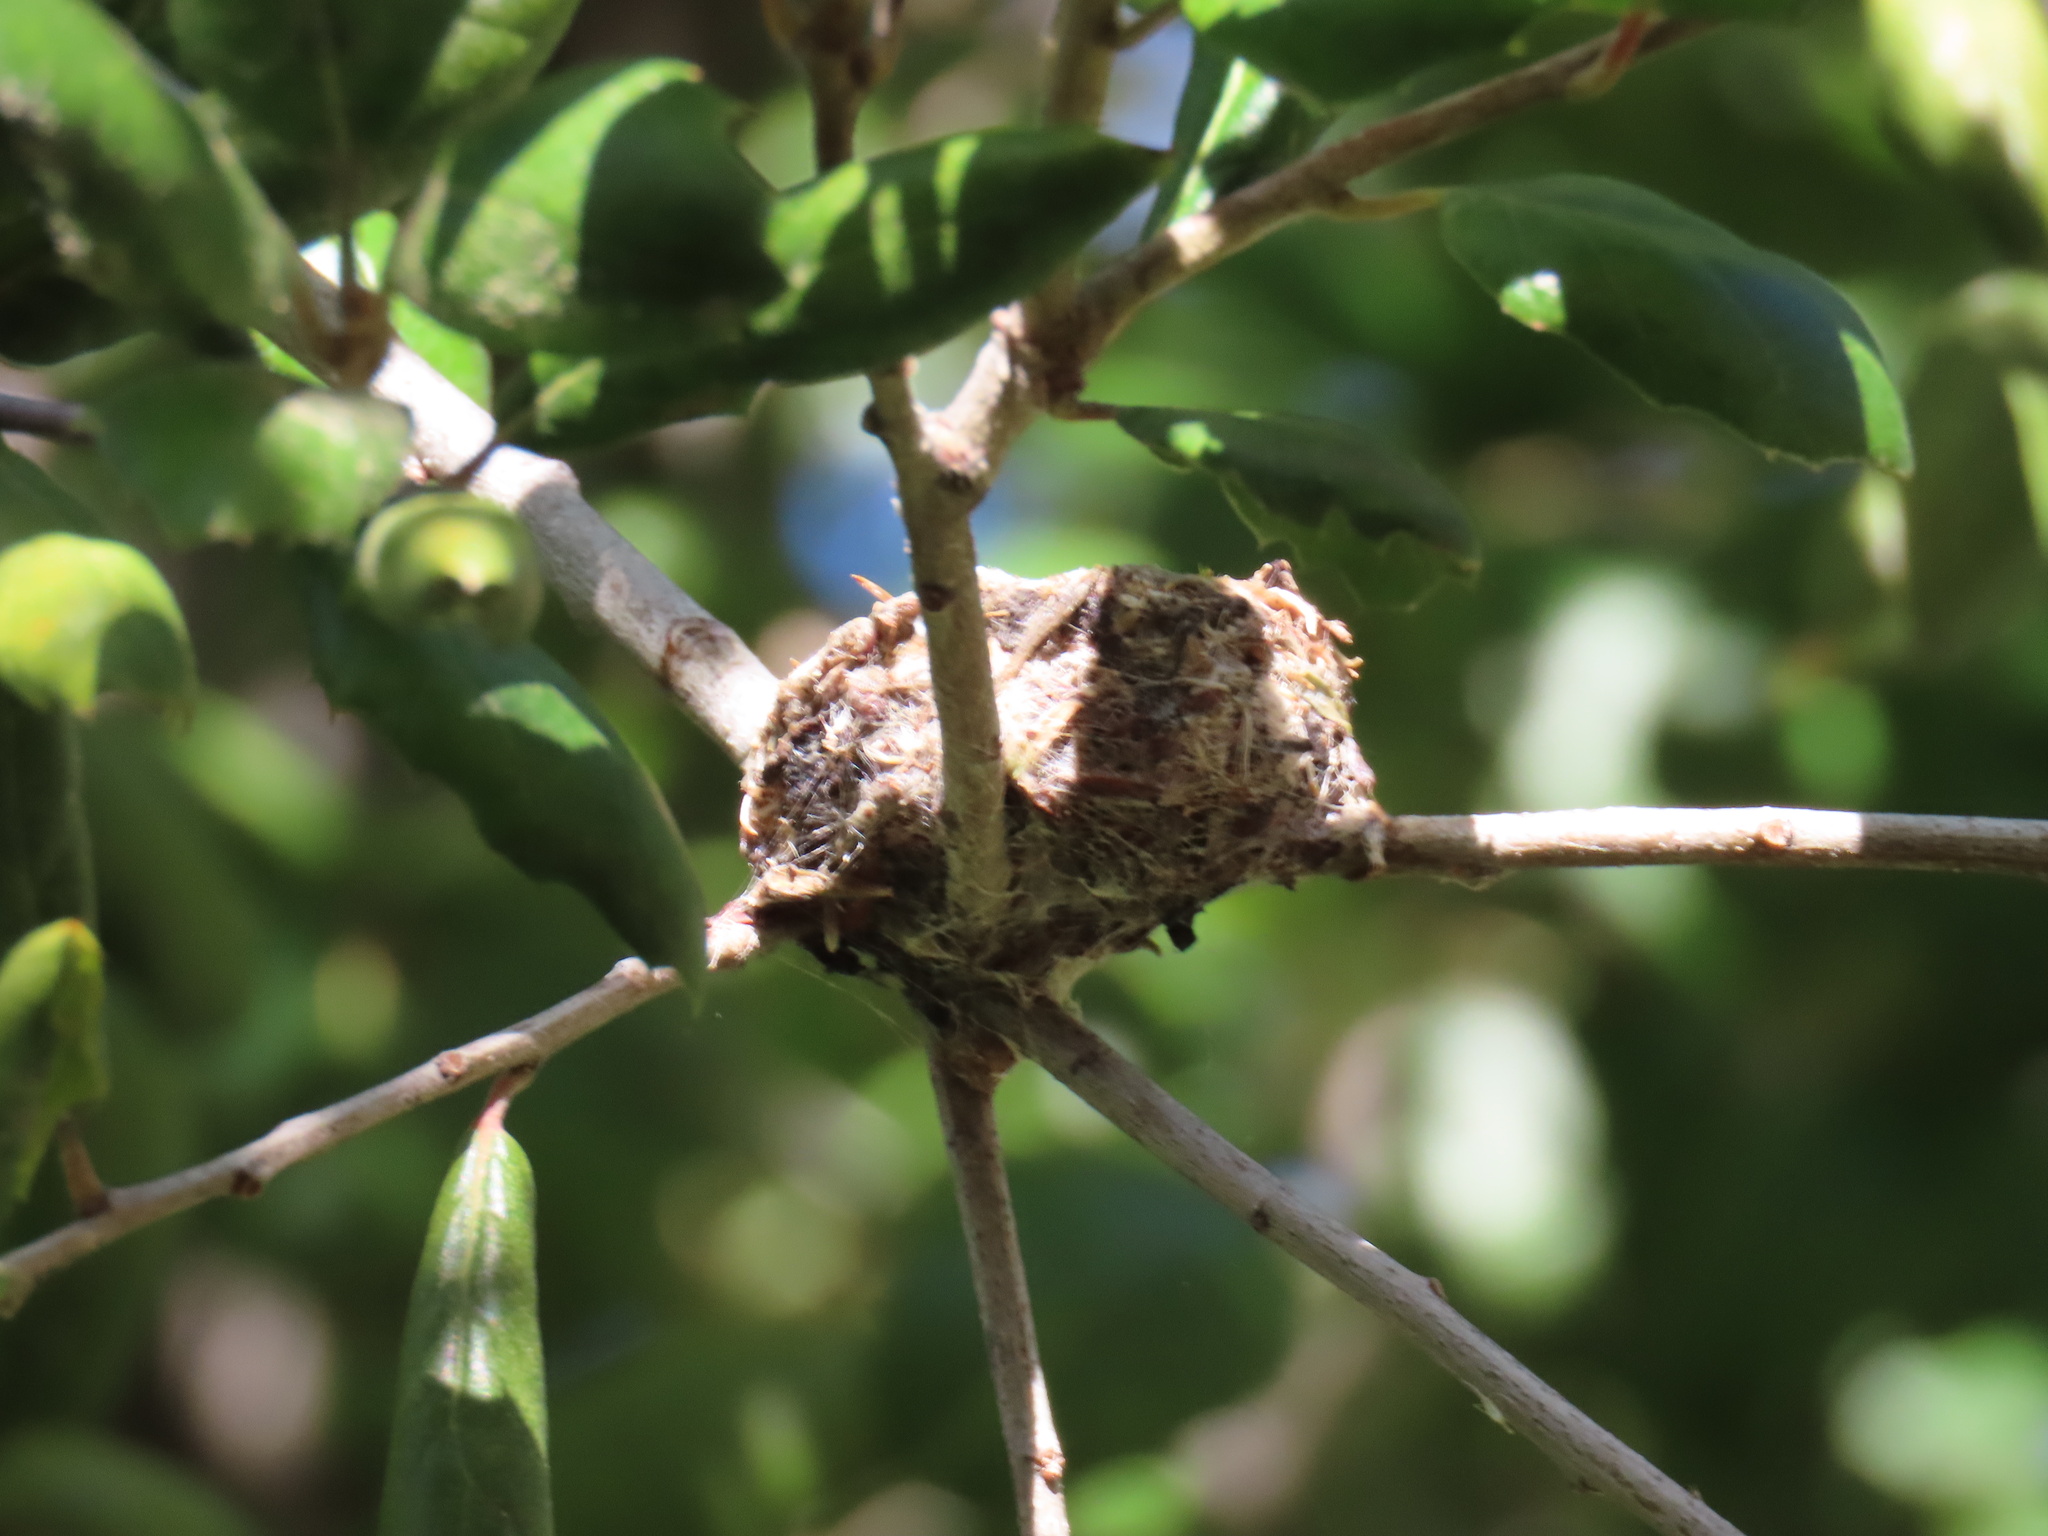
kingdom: Plantae
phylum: Tracheophyta
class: Magnoliopsida
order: Fagales
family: Fagaceae
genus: Quercus
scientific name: Quercus agrifolia
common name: California live oak
